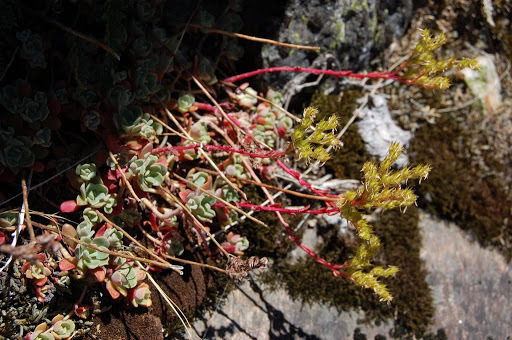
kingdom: Plantae
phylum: Tracheophyta
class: Magnoliopsida
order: Saxifragales
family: Crassulaceae
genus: Sedum
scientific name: Sedum obtusatum
